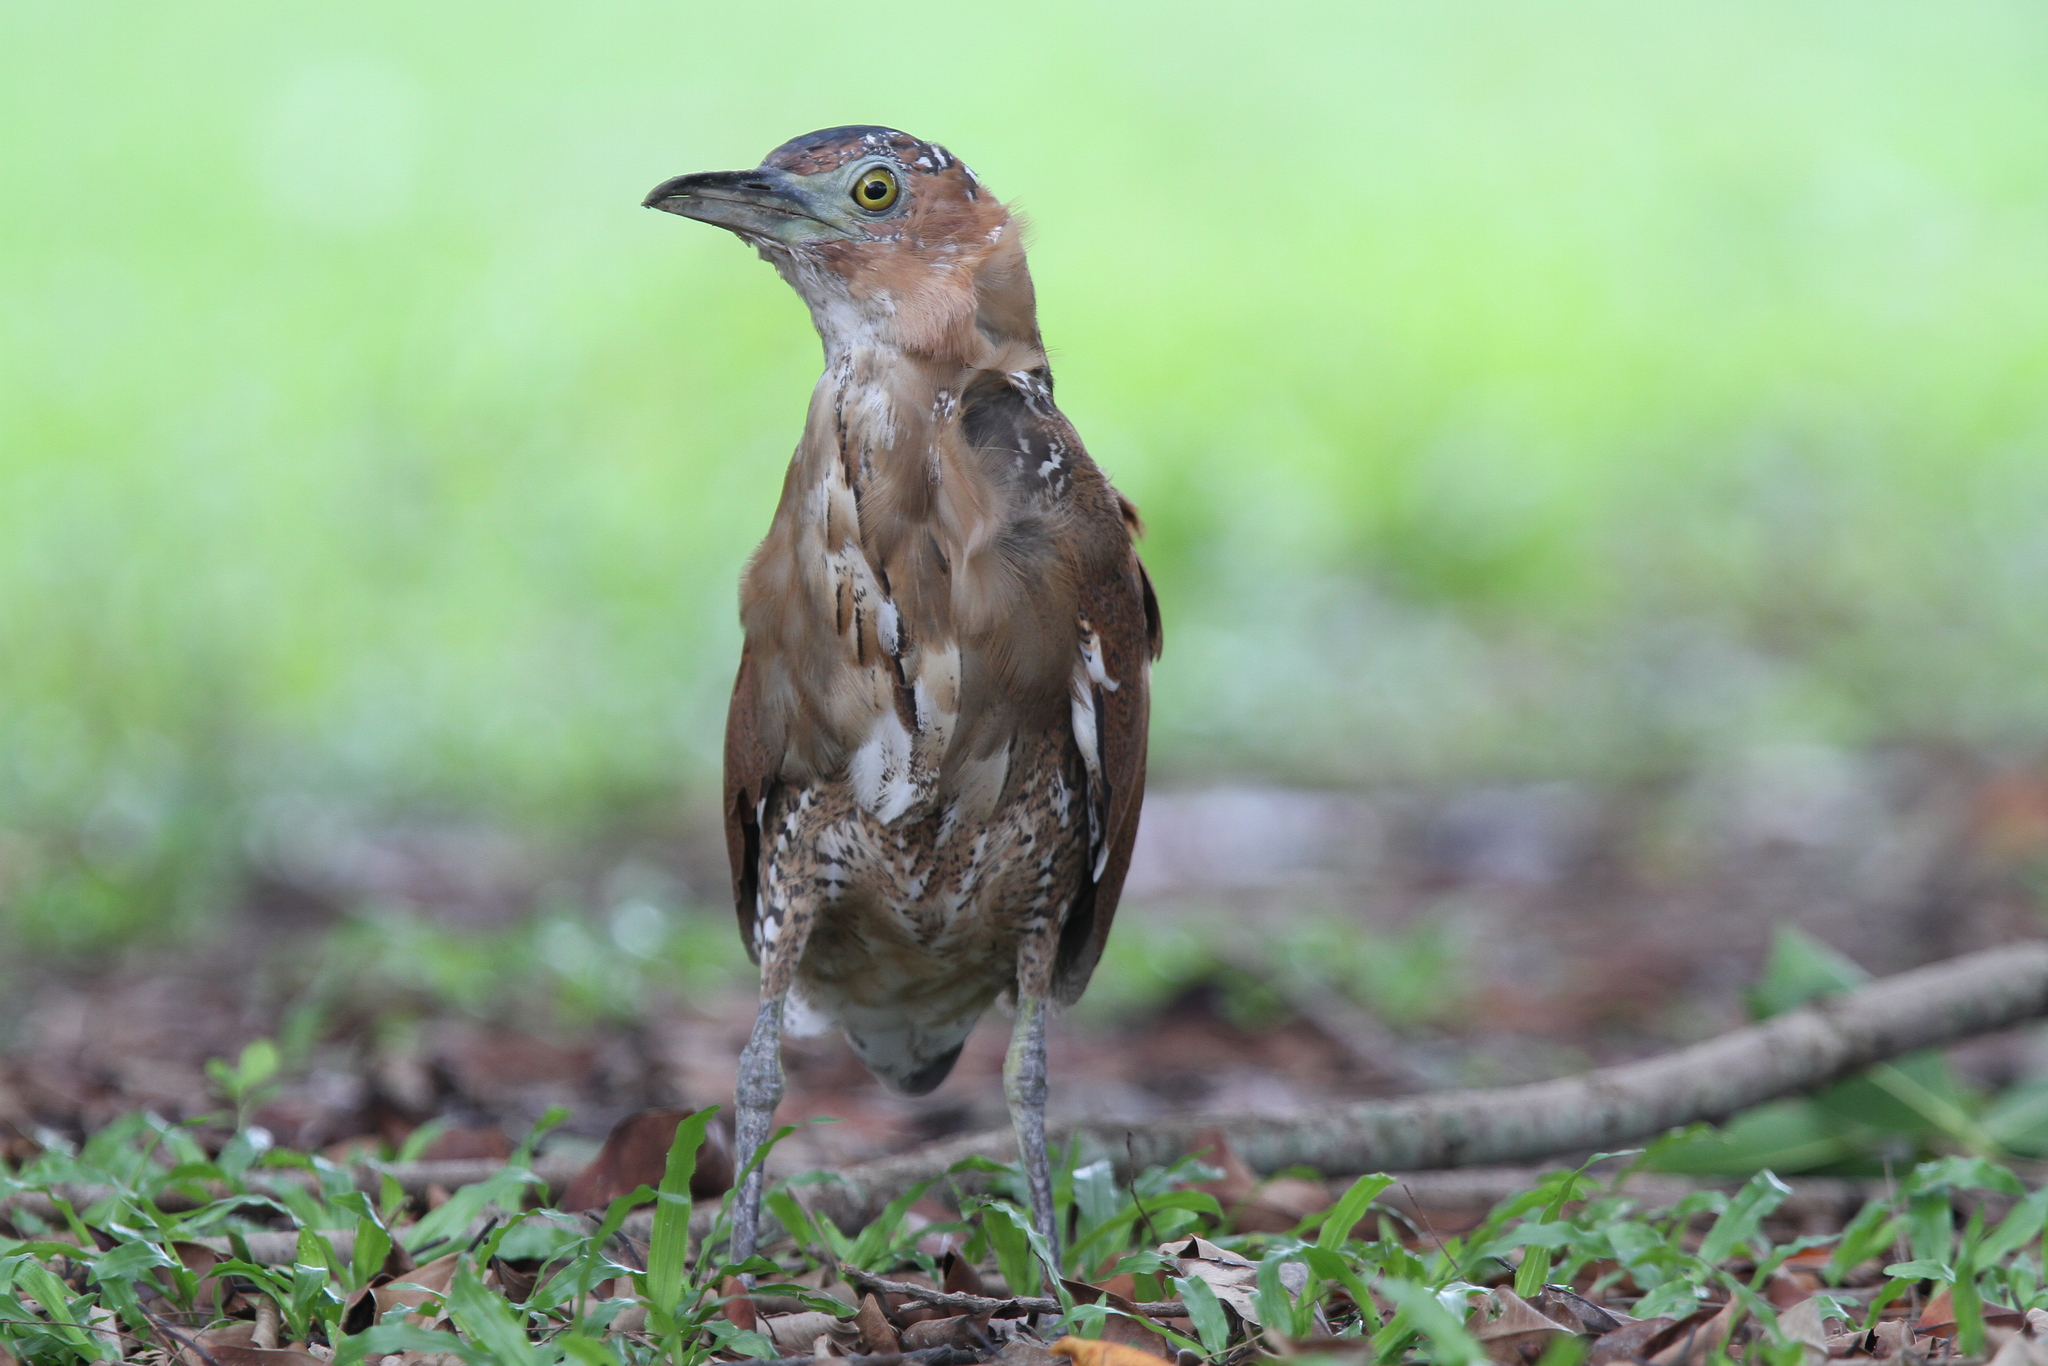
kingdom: Animalia
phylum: Chordata
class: Aves
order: Pelecaniformes
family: Ardeidae
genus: Gorsachius
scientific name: Gorsachius melanolophus
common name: Malayan night heron
